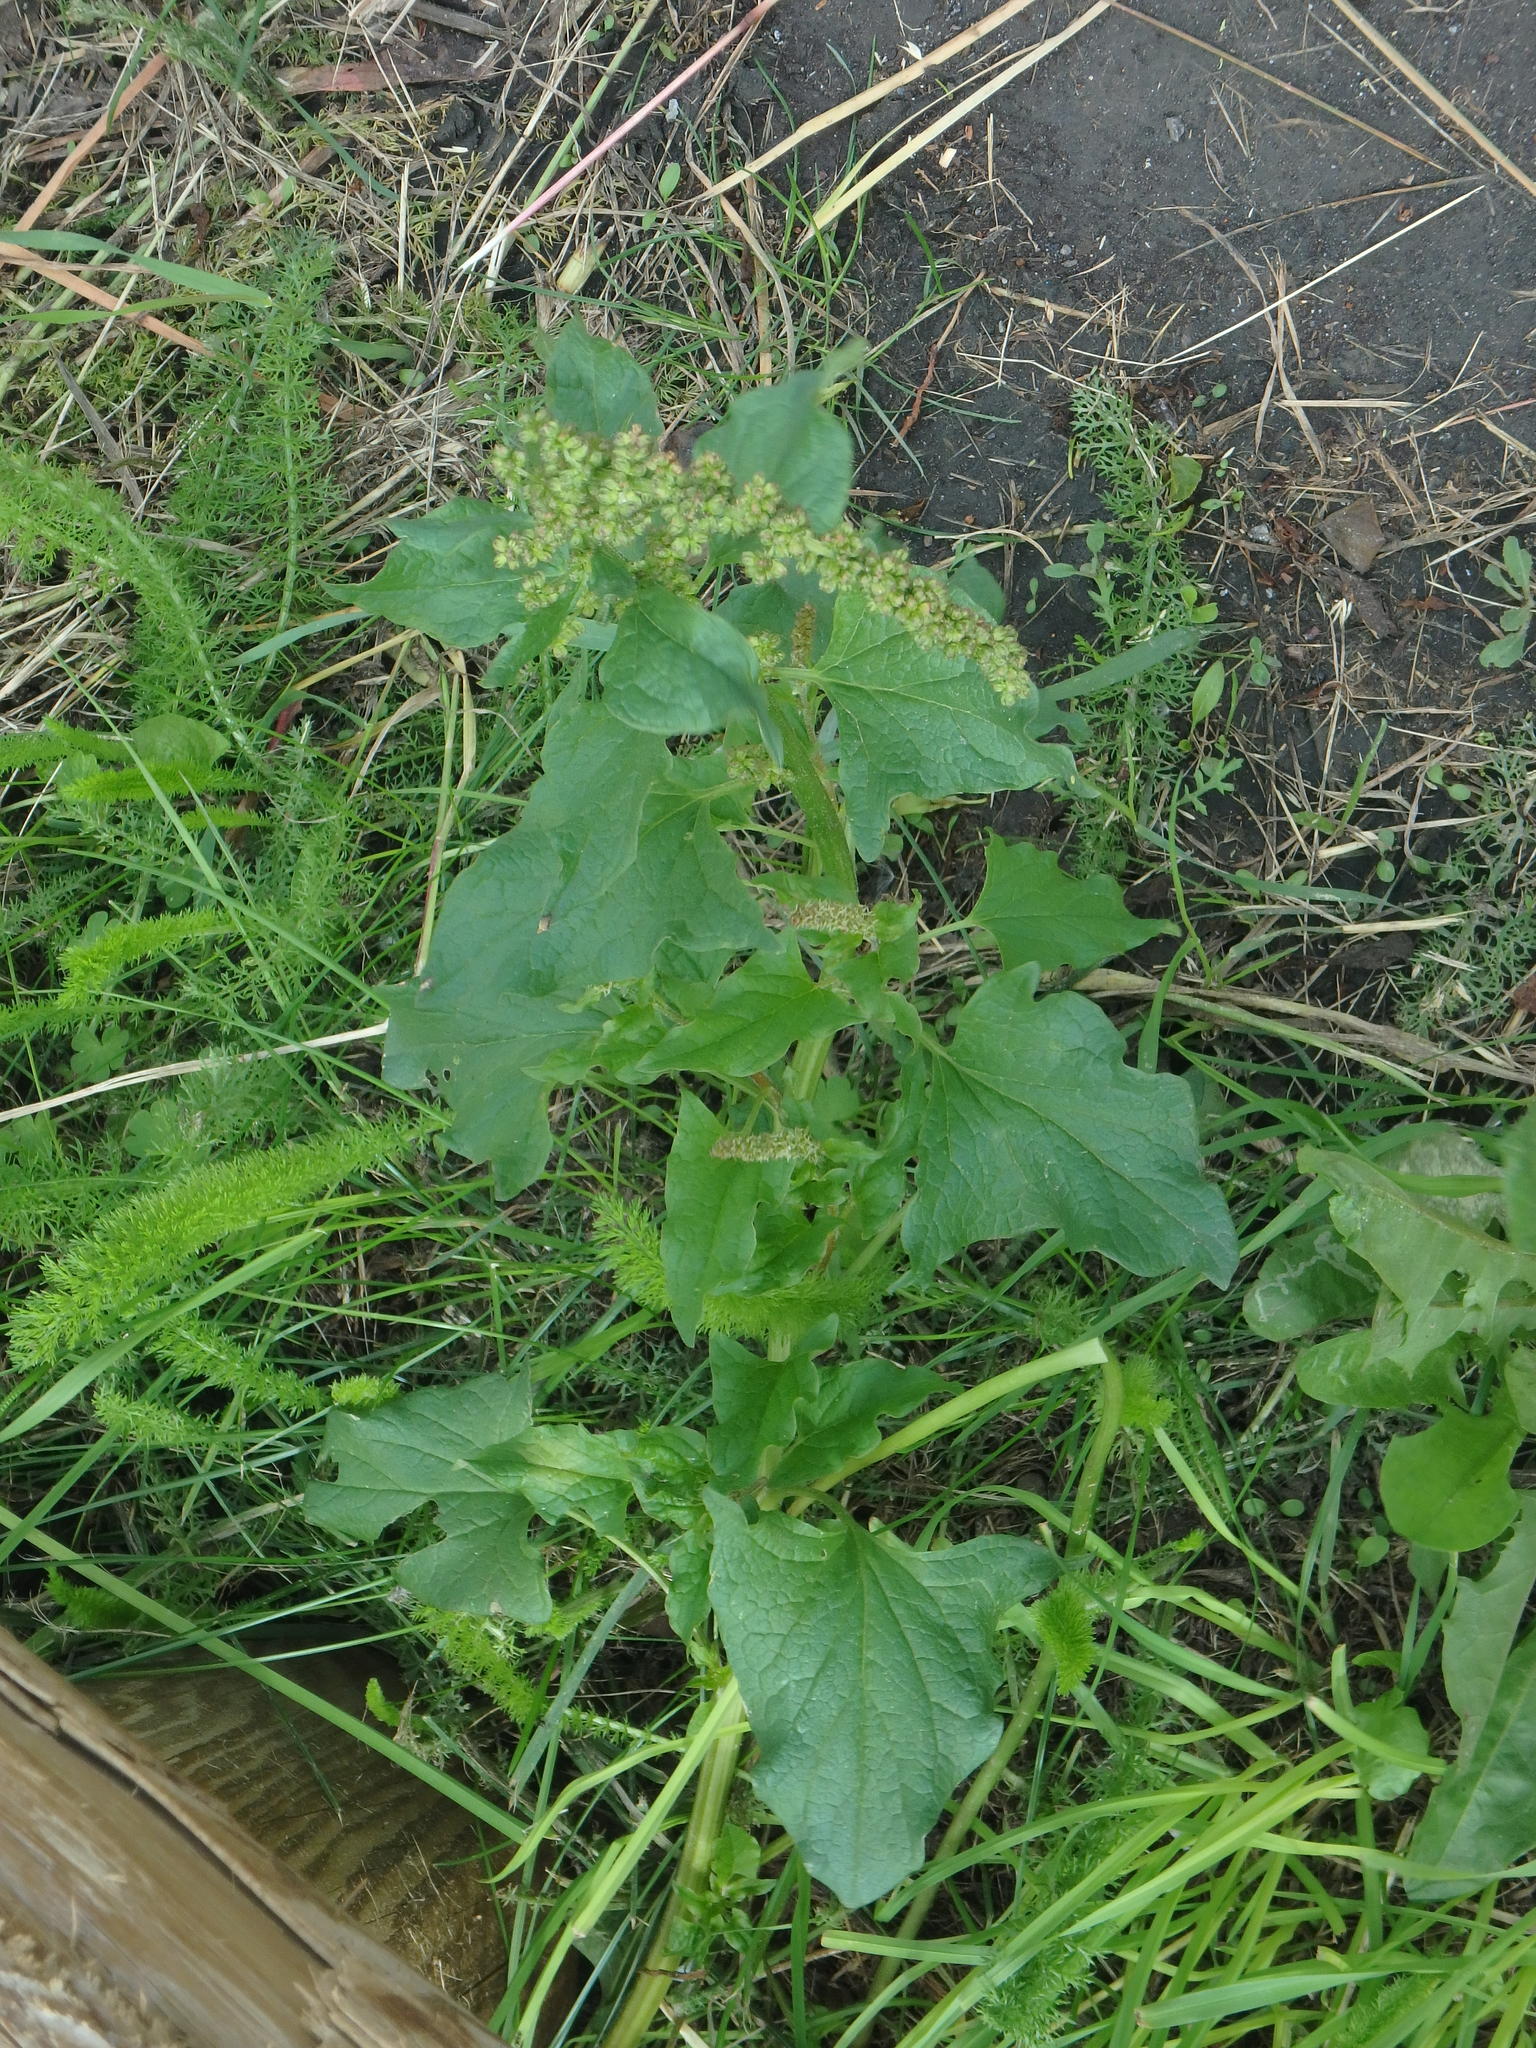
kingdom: Plantae
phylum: Tracheophyta
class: Magnoliopsida
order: Caryophyllales
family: Amaranthaceae
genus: Blitum
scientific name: Blitum bonus-henricus
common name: Good king henry
